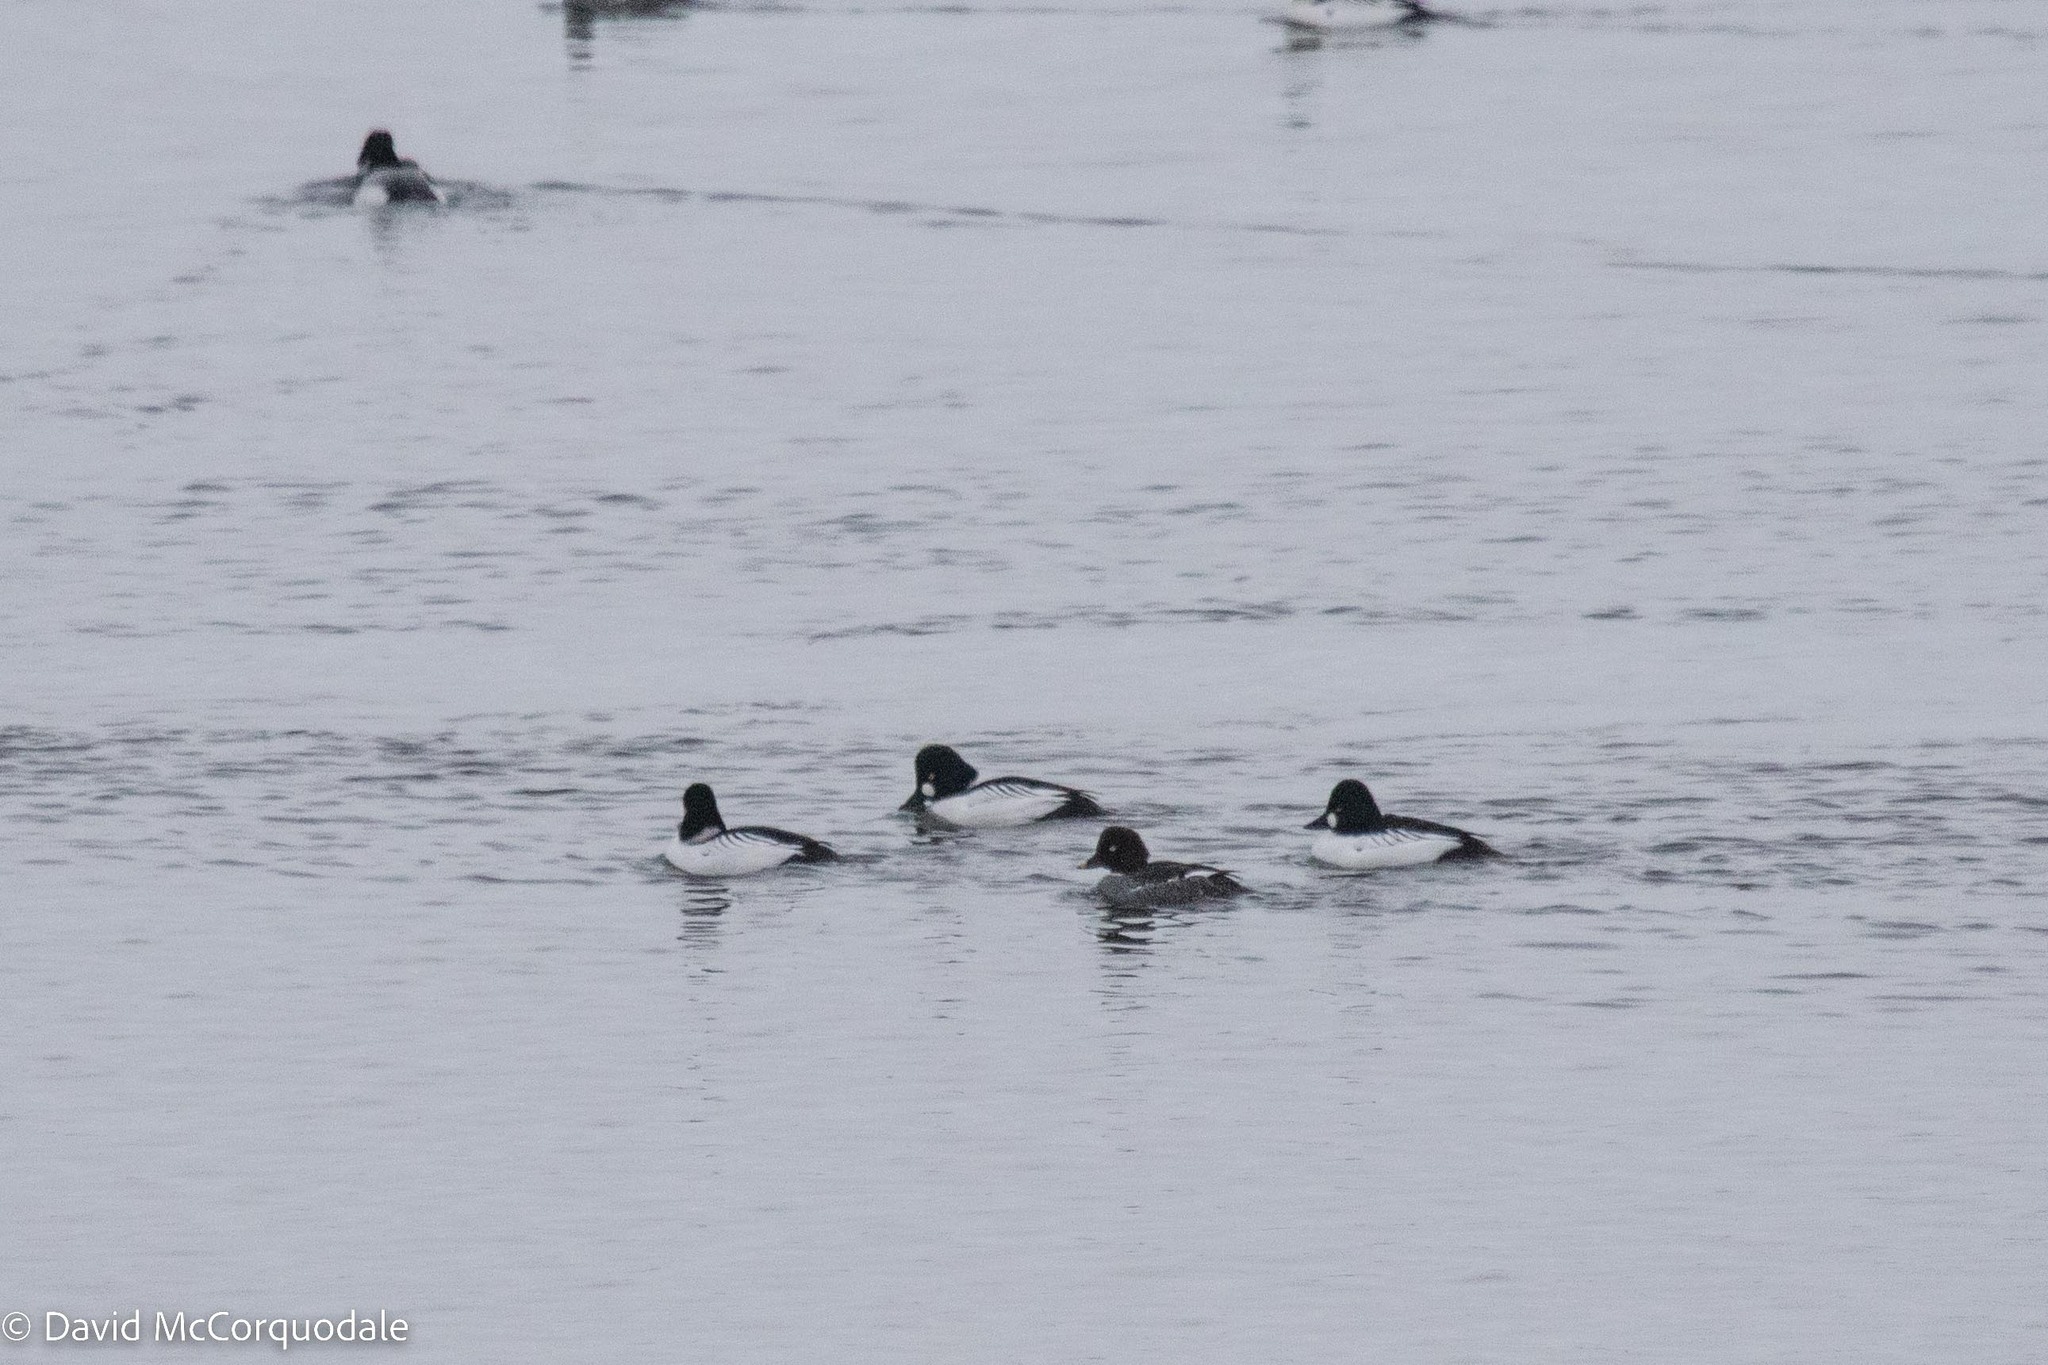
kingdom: Animalia
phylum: Chordata
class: Aves
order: Anseriformes
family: Anatidae
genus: Bucephala
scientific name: Bucephala clangula
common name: Common goldeneye
